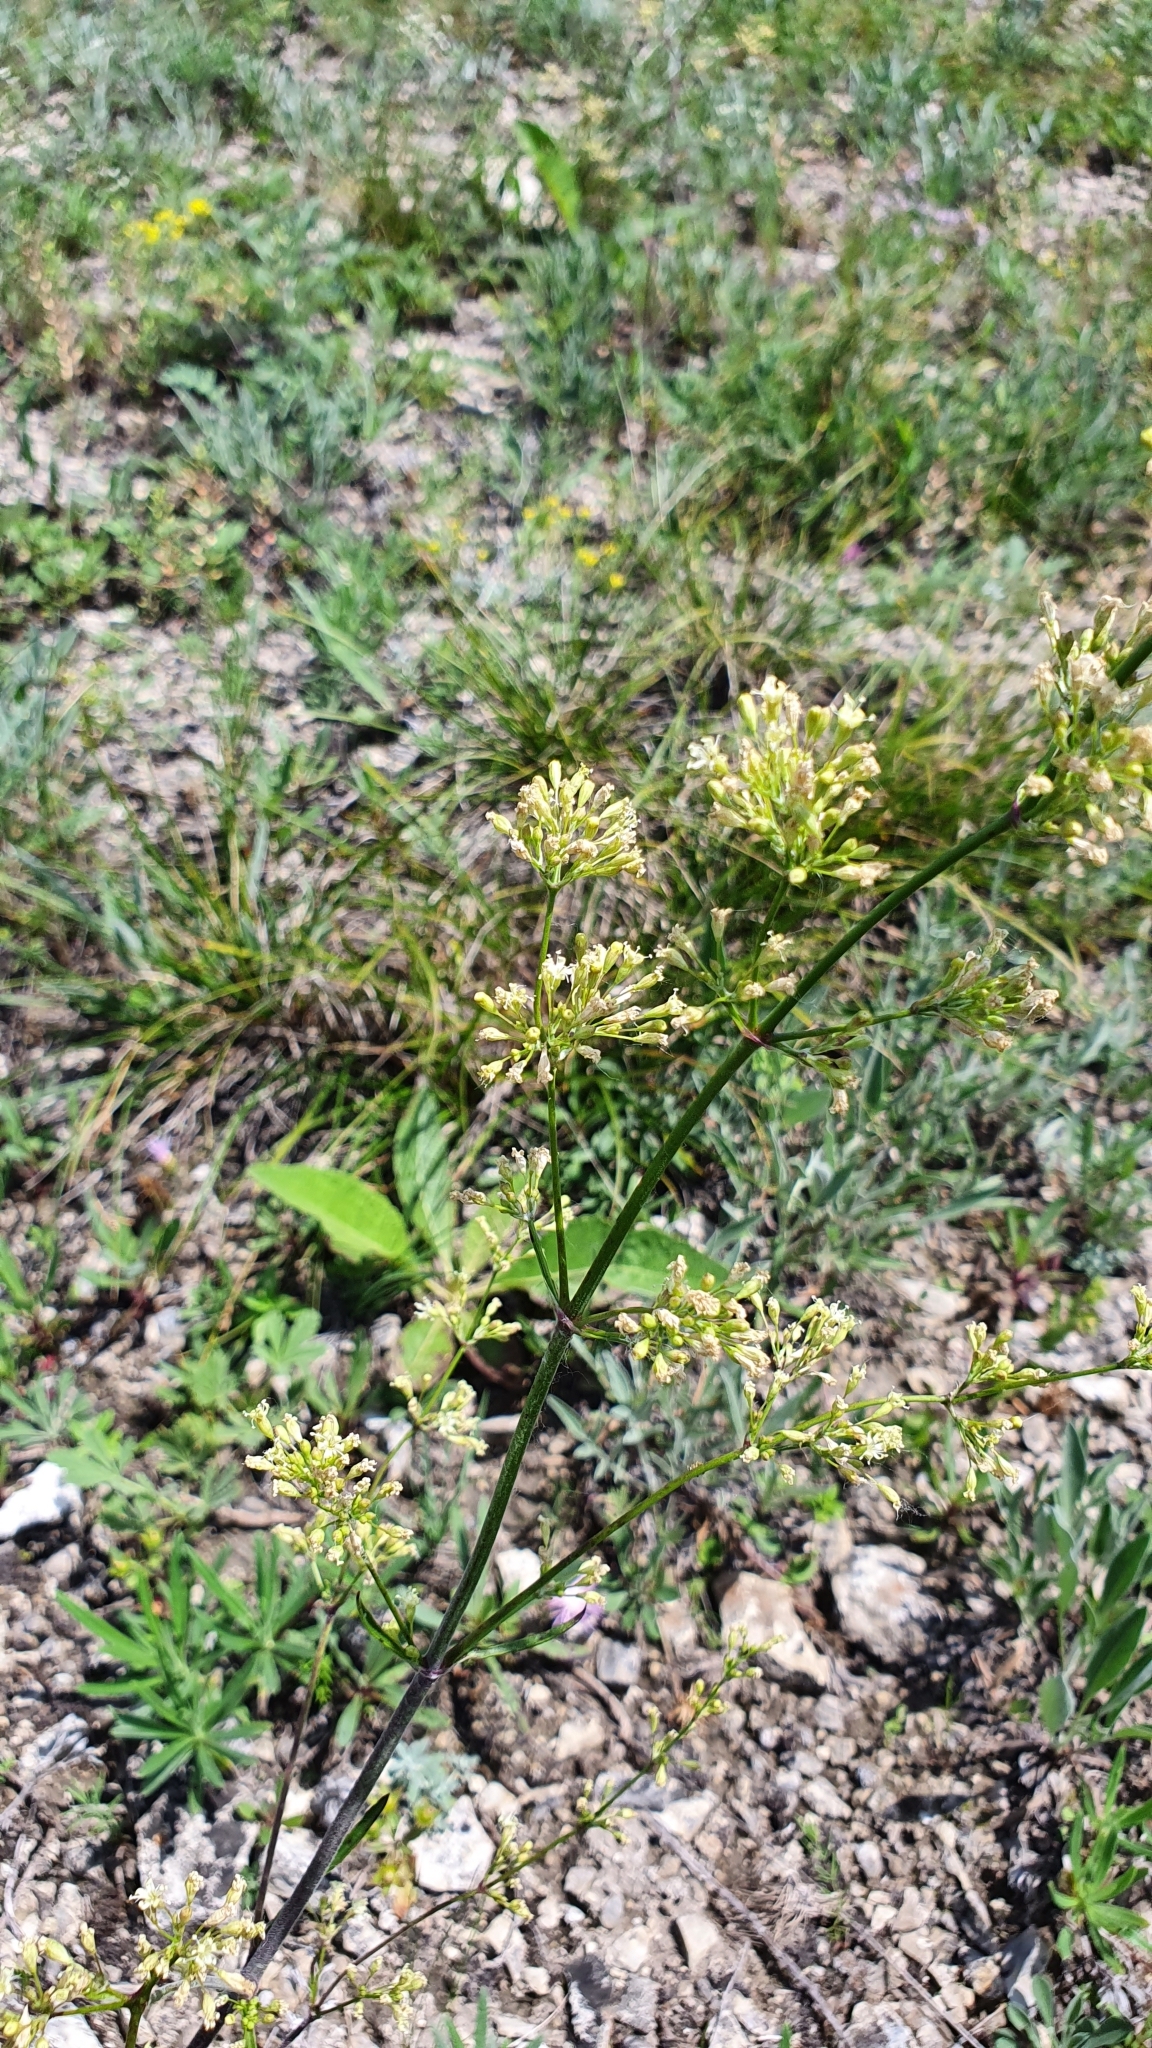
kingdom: Plantae
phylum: Tracheophyta
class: Magnoliopsida
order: Caryophyllales
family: Caryophyllaceae
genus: Silene
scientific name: Silene chersonensis
